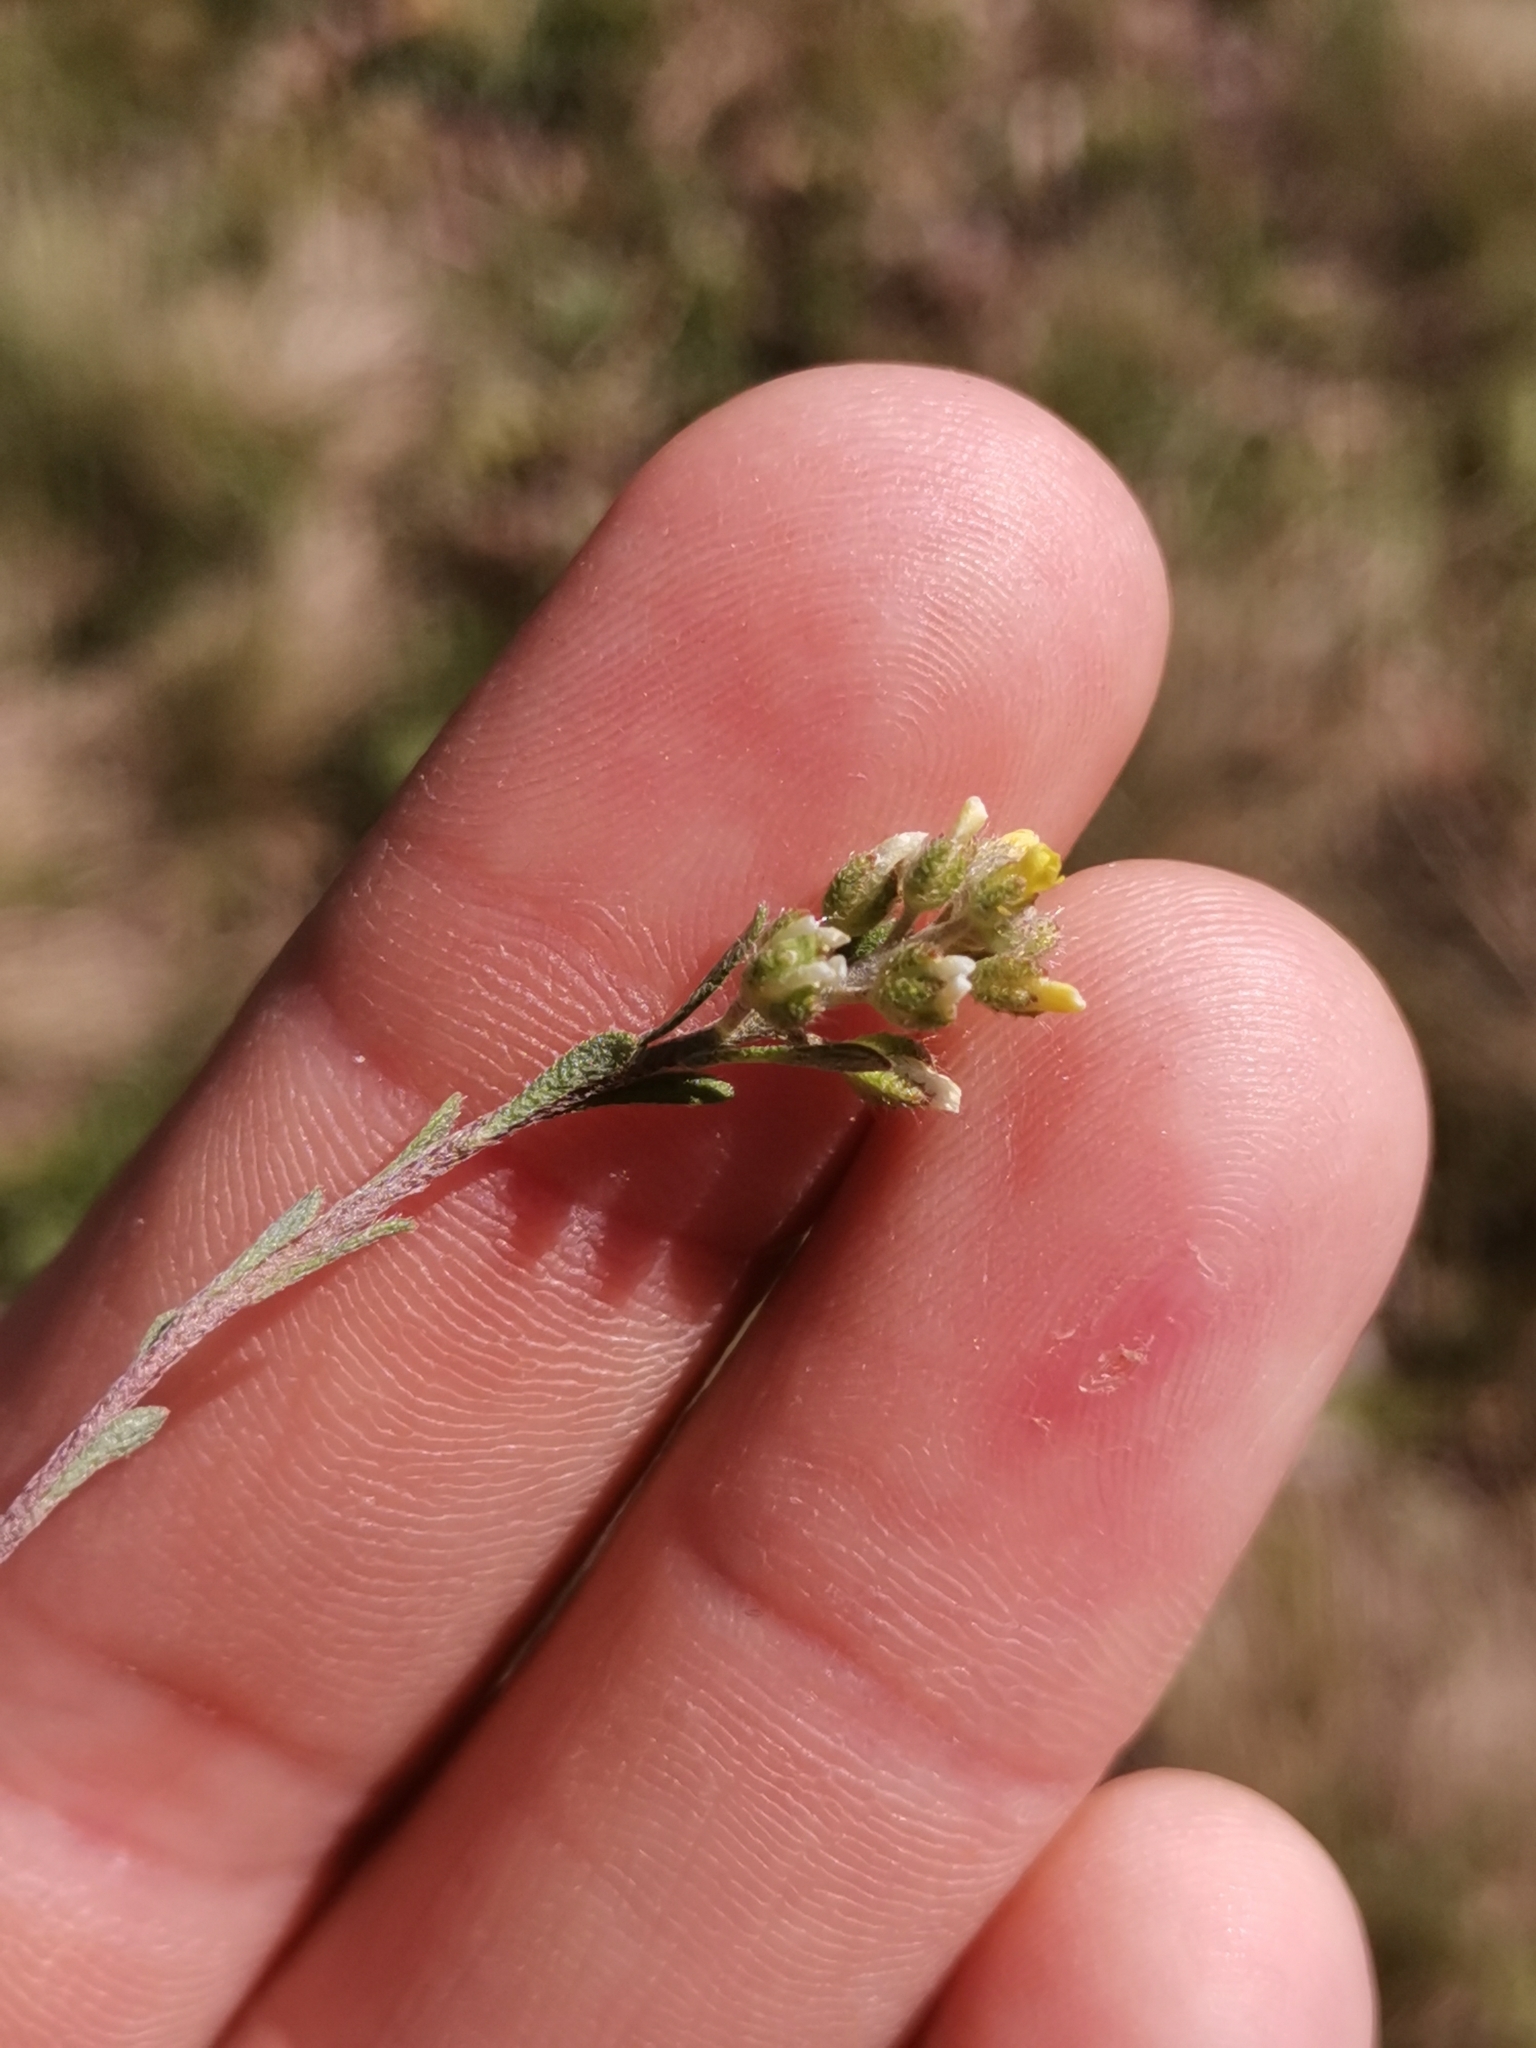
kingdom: Plantae
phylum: Tracheophyta
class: Magnoliopsida
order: Brassicales
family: Brassicaceae
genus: Alyssum
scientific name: Alyssum alyssoides
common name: Small alison
